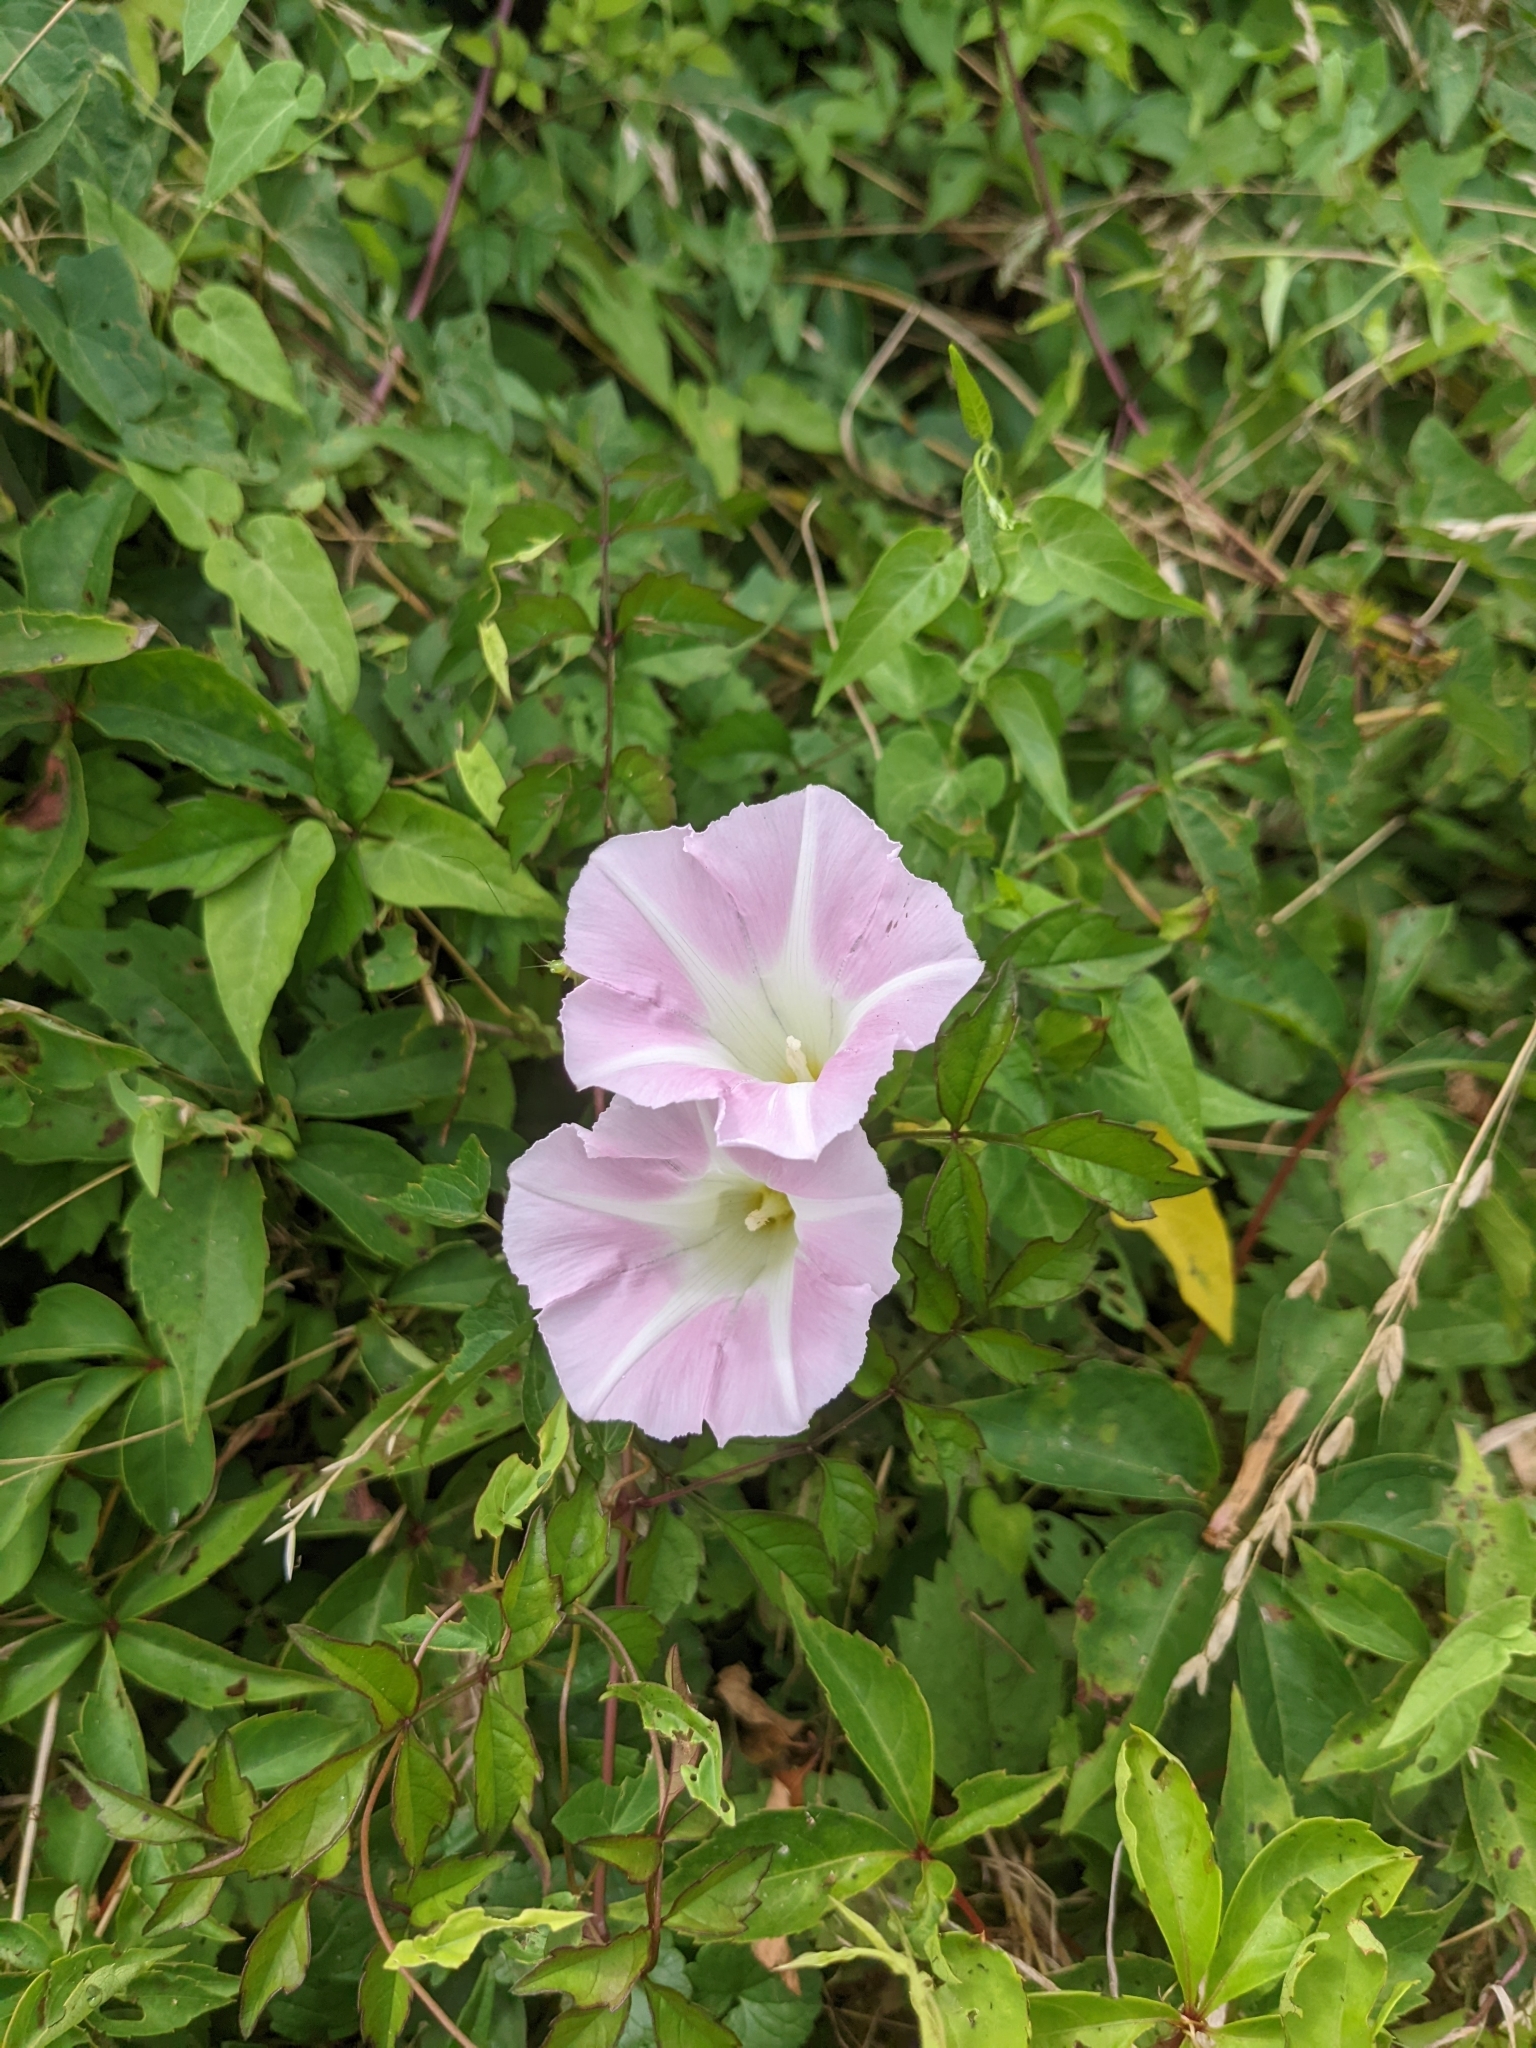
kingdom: Plantae
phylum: Tracheophyta
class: Magnoliopsida
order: Solanales
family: Convolvulaceae
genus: Calystegia
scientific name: Calystegia sepium
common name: Hedge bindweed
